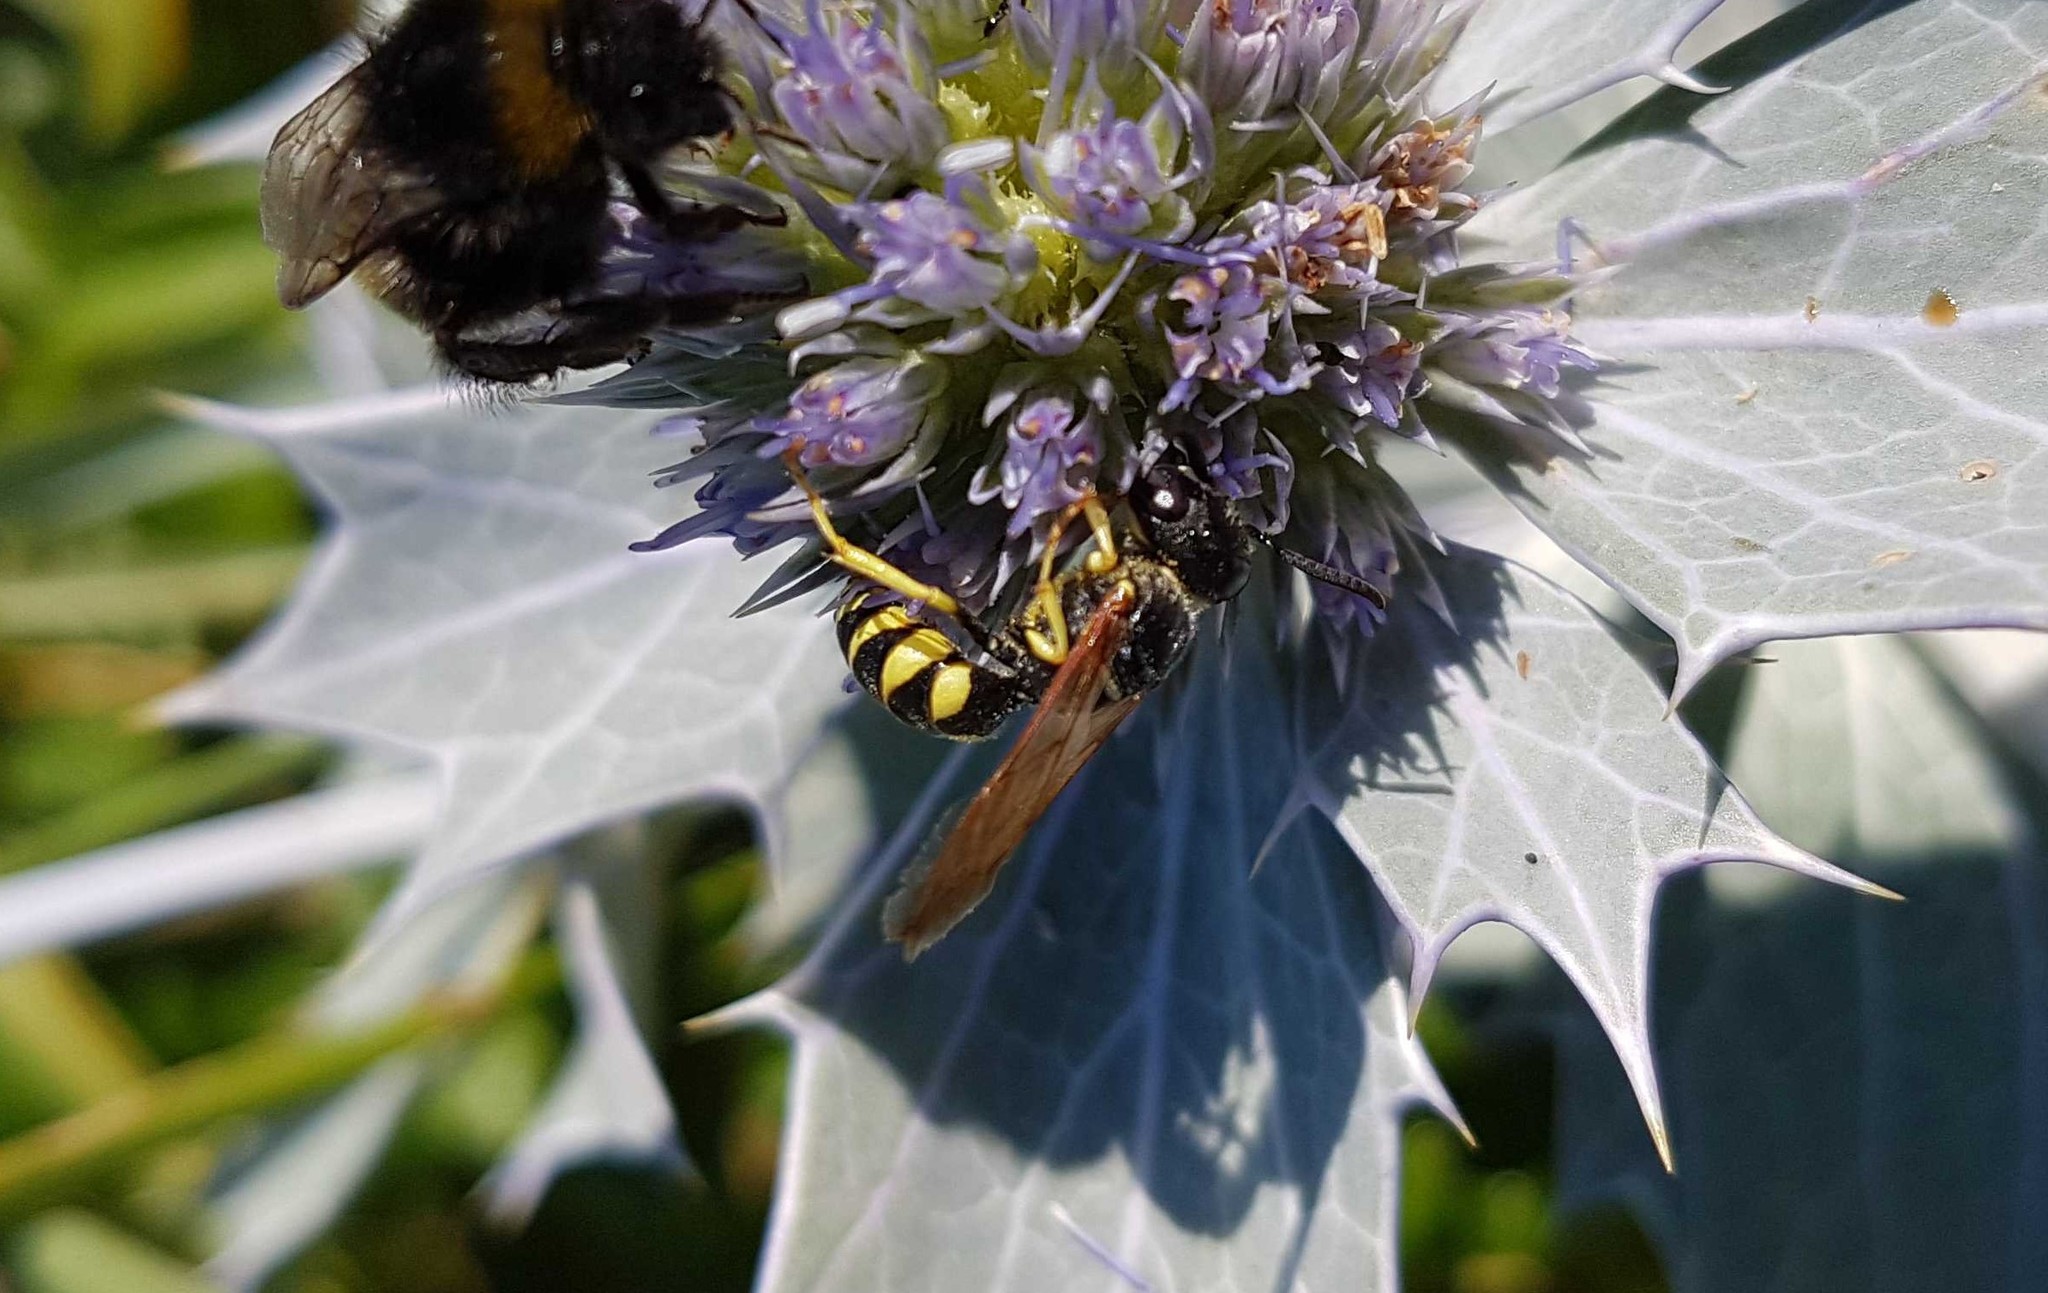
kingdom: Animalia
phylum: Arthropoda
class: Insecta
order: Hymenoptera
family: Crabronidae
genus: Philanthus
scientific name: Philanthus triangulum
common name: Bee wolf
